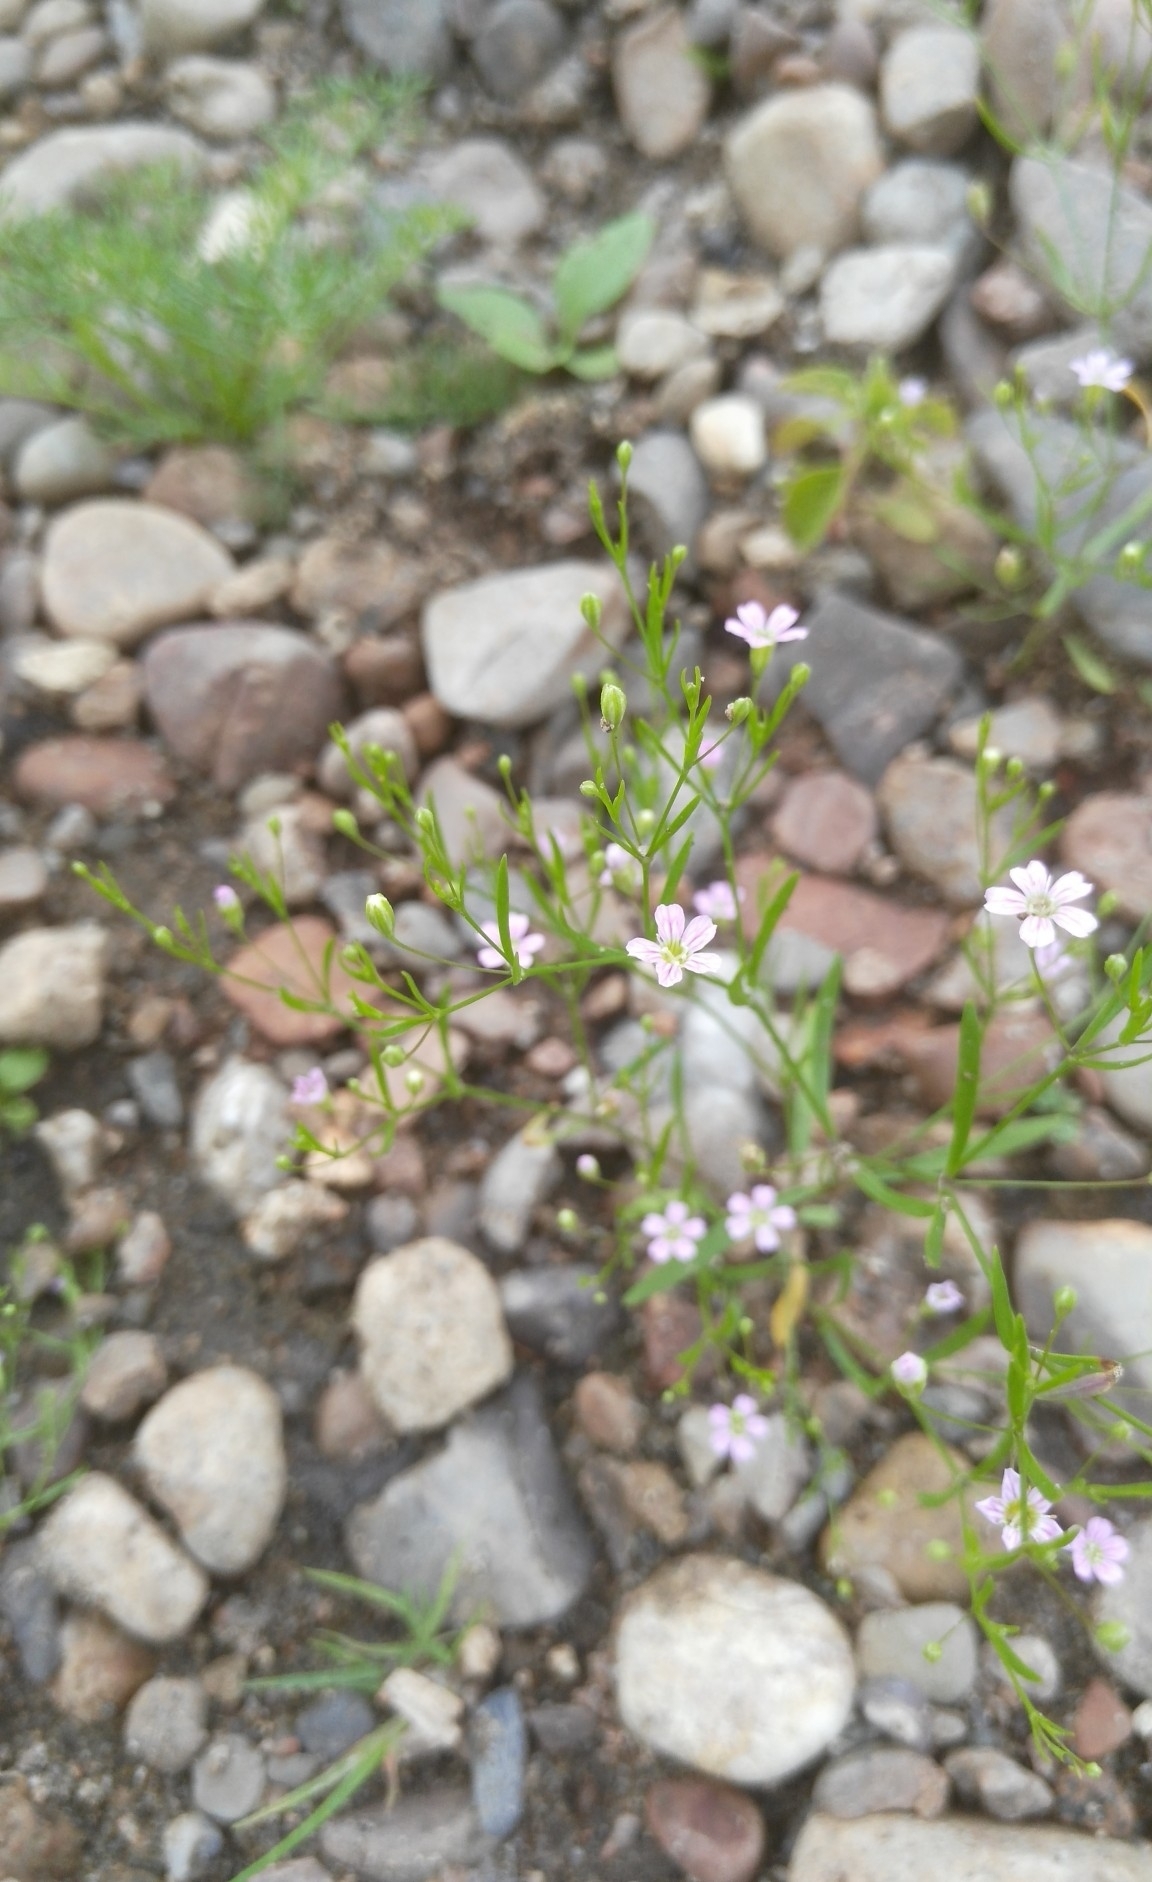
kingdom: Plantae
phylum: Tracheophyta
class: Magnoliopsida
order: Caryophyllales
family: Caryophyllaceae
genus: Psammophiliella
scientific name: Psammophiliella muralis
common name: Cushion baby's-breath
